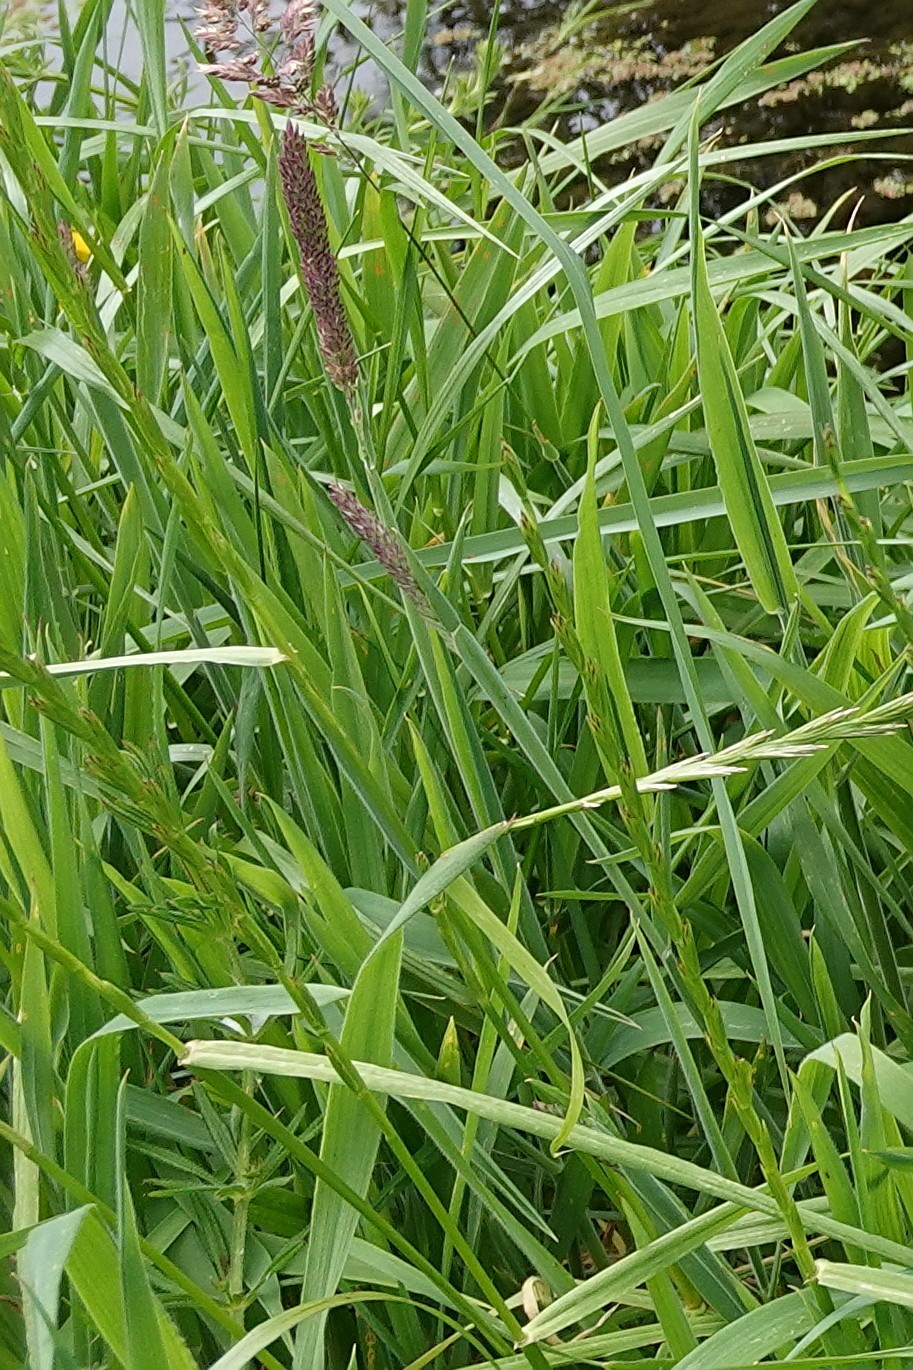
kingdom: Plantae
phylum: Tracheophyta
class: Liliopsida
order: Poales
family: Poaceae
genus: Holcus
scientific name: Holcus lanatus
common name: Yorkshire-fog
